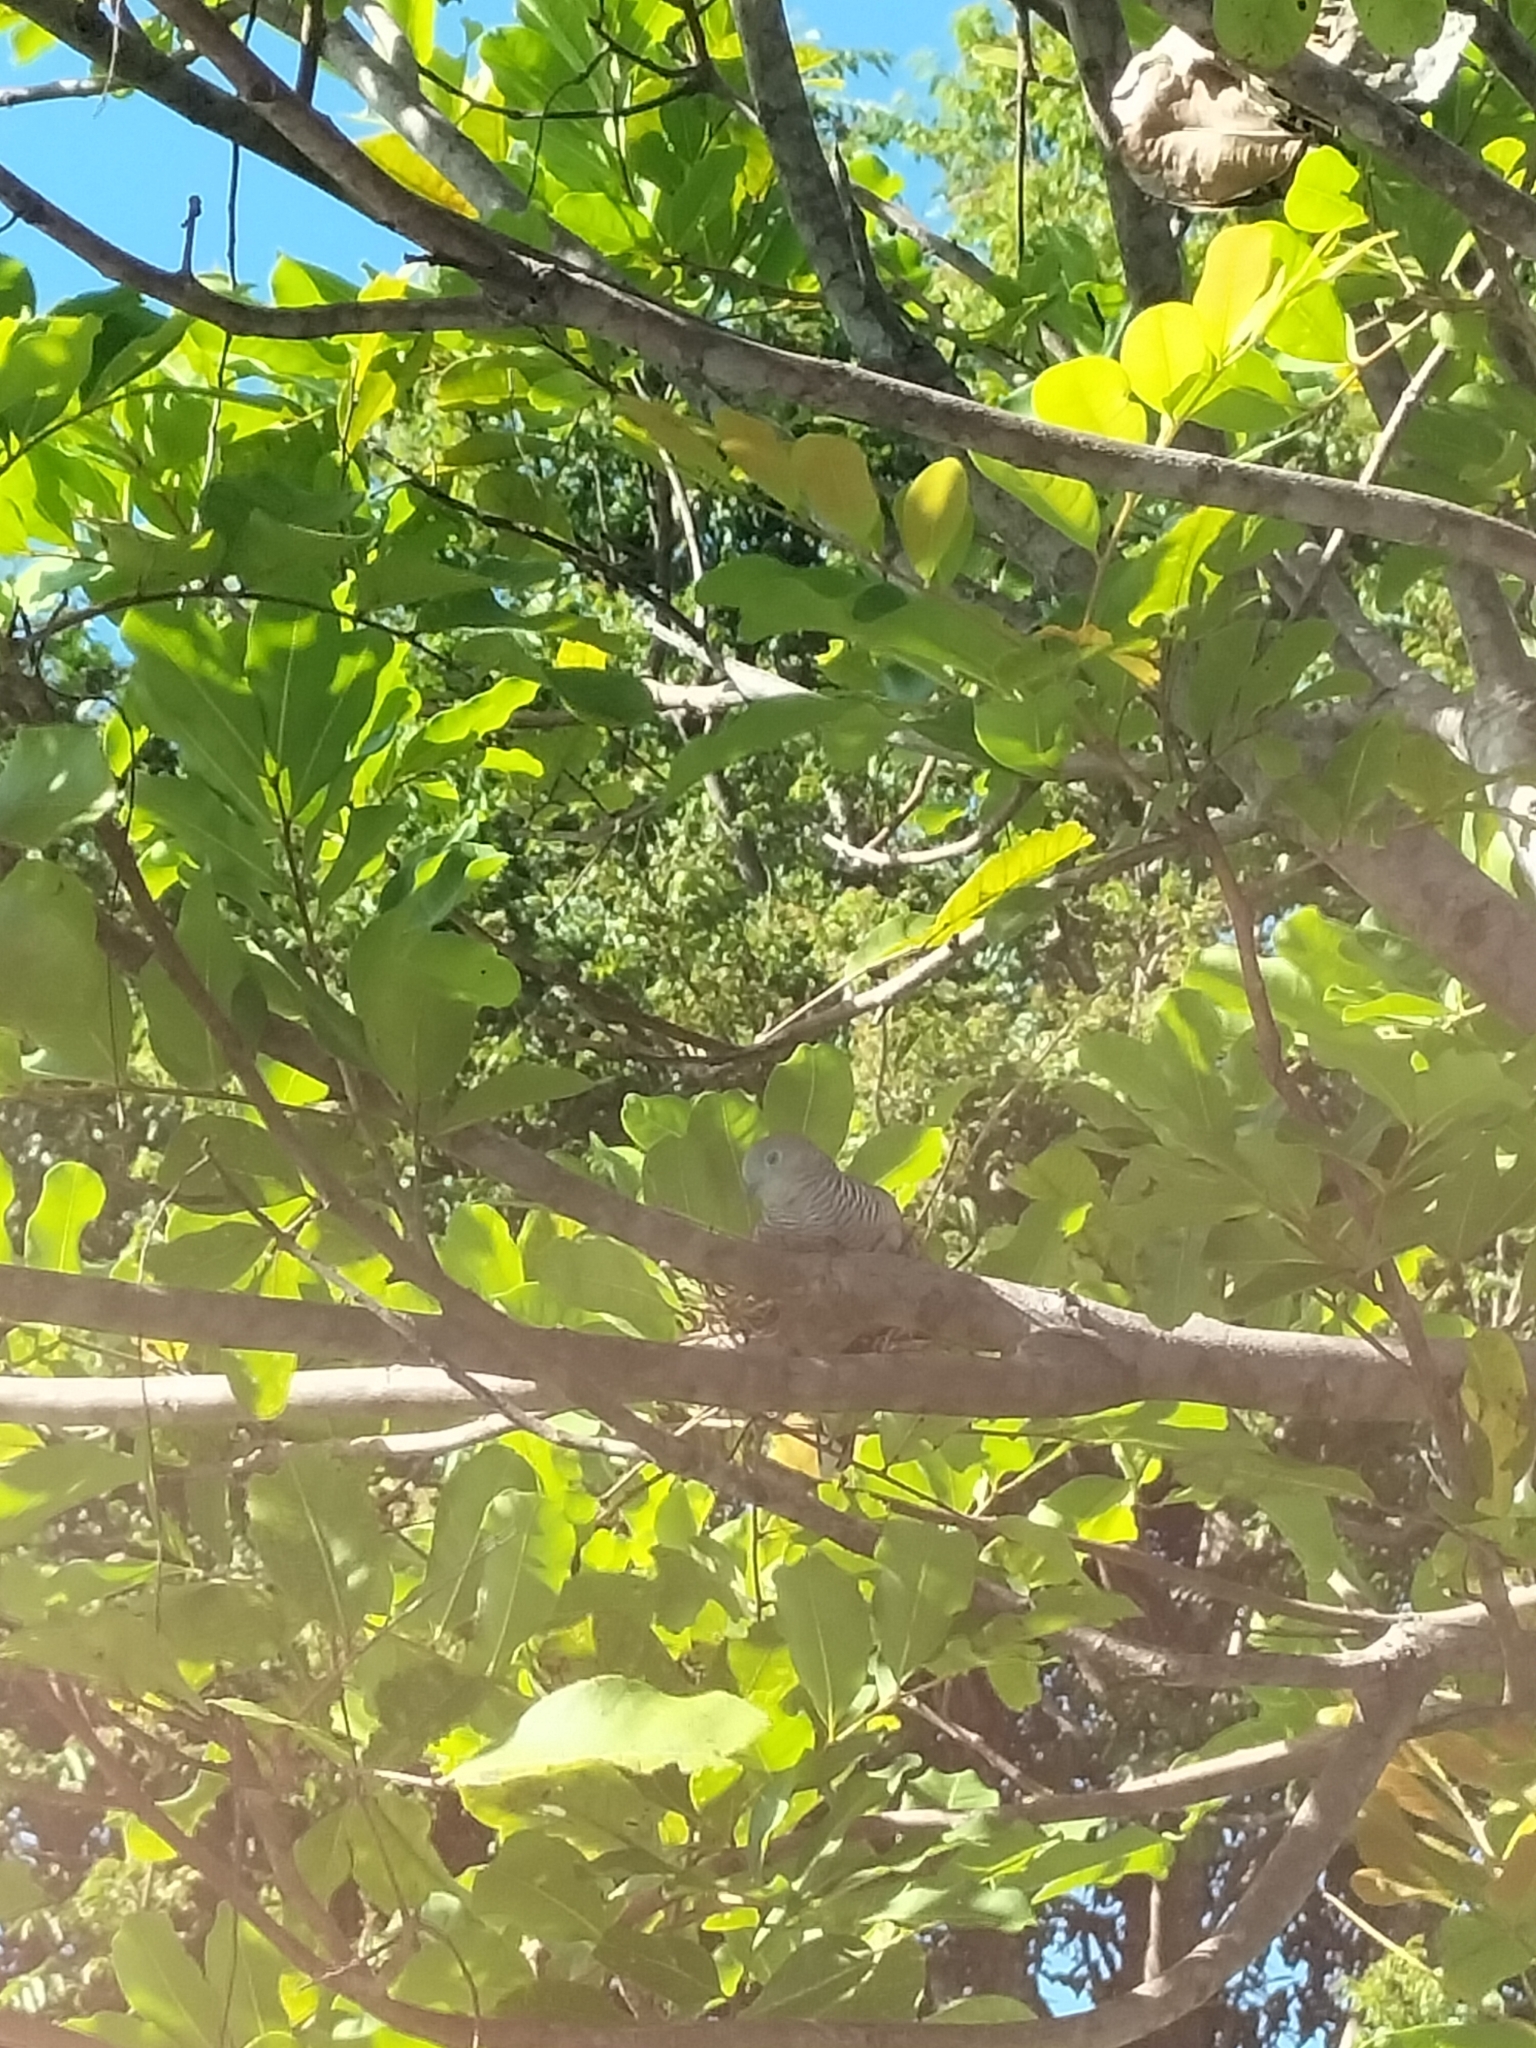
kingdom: Animalia
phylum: Chordata
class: Aves
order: Columbiformes
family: Columbidae
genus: Geopelia
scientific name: Geopelia placida
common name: Peaceful dove
